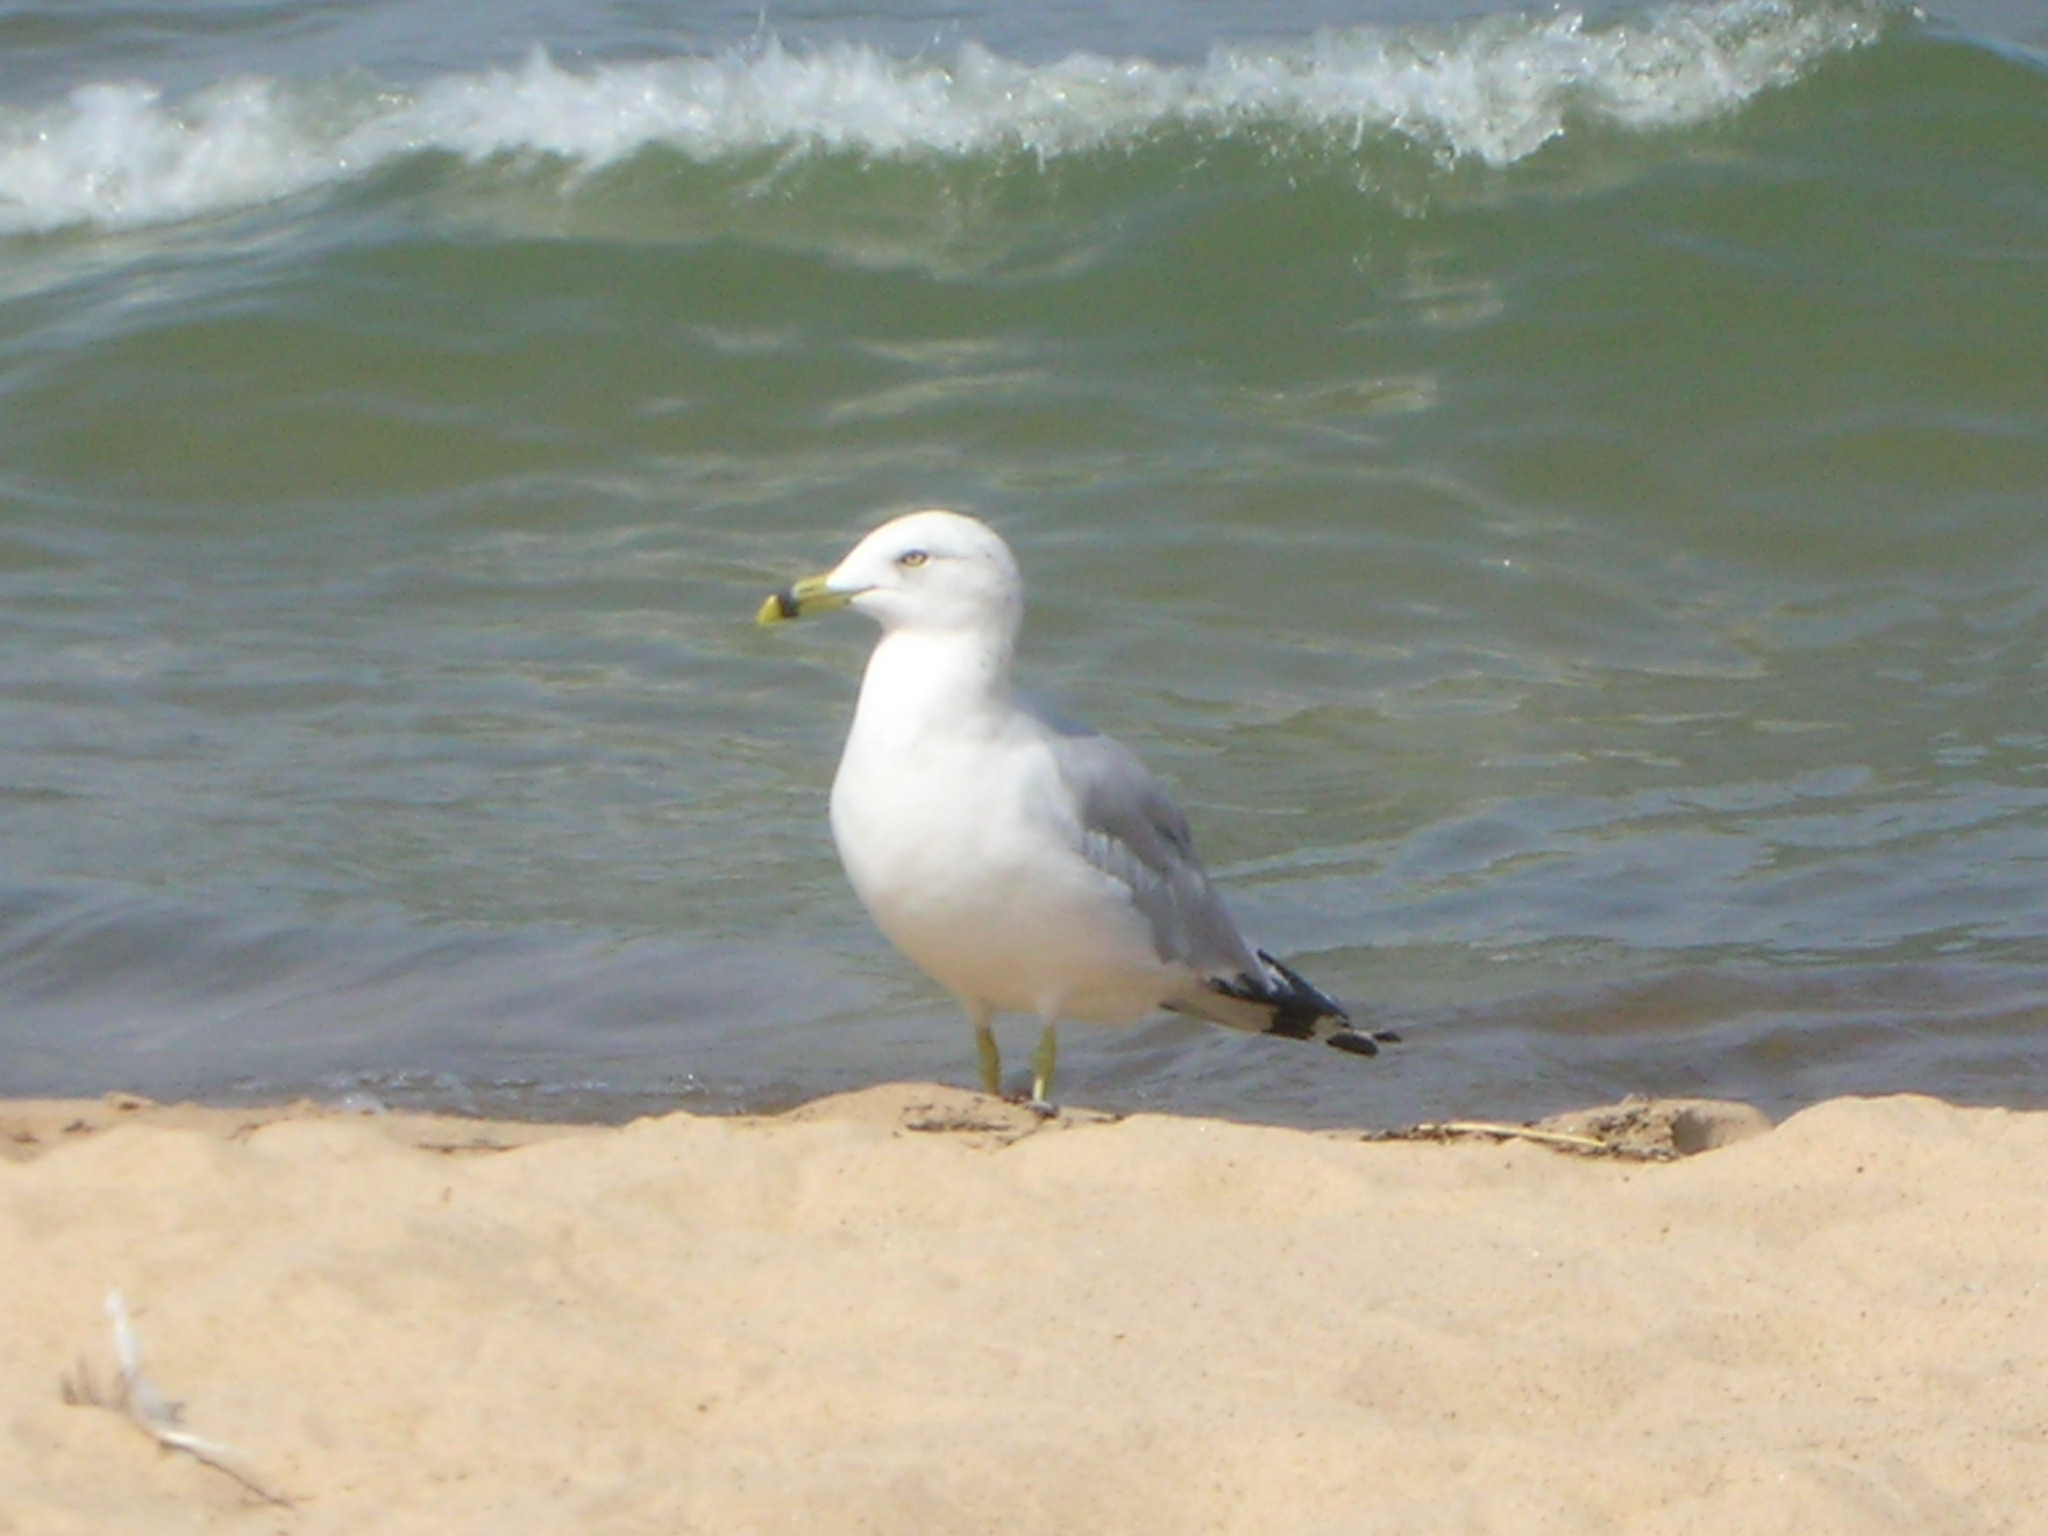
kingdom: Animalia
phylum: Chordata
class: Aves
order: Charadriiformes
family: Laridae
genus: Larus
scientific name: Larus delawarensis
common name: Ring-billed gull
